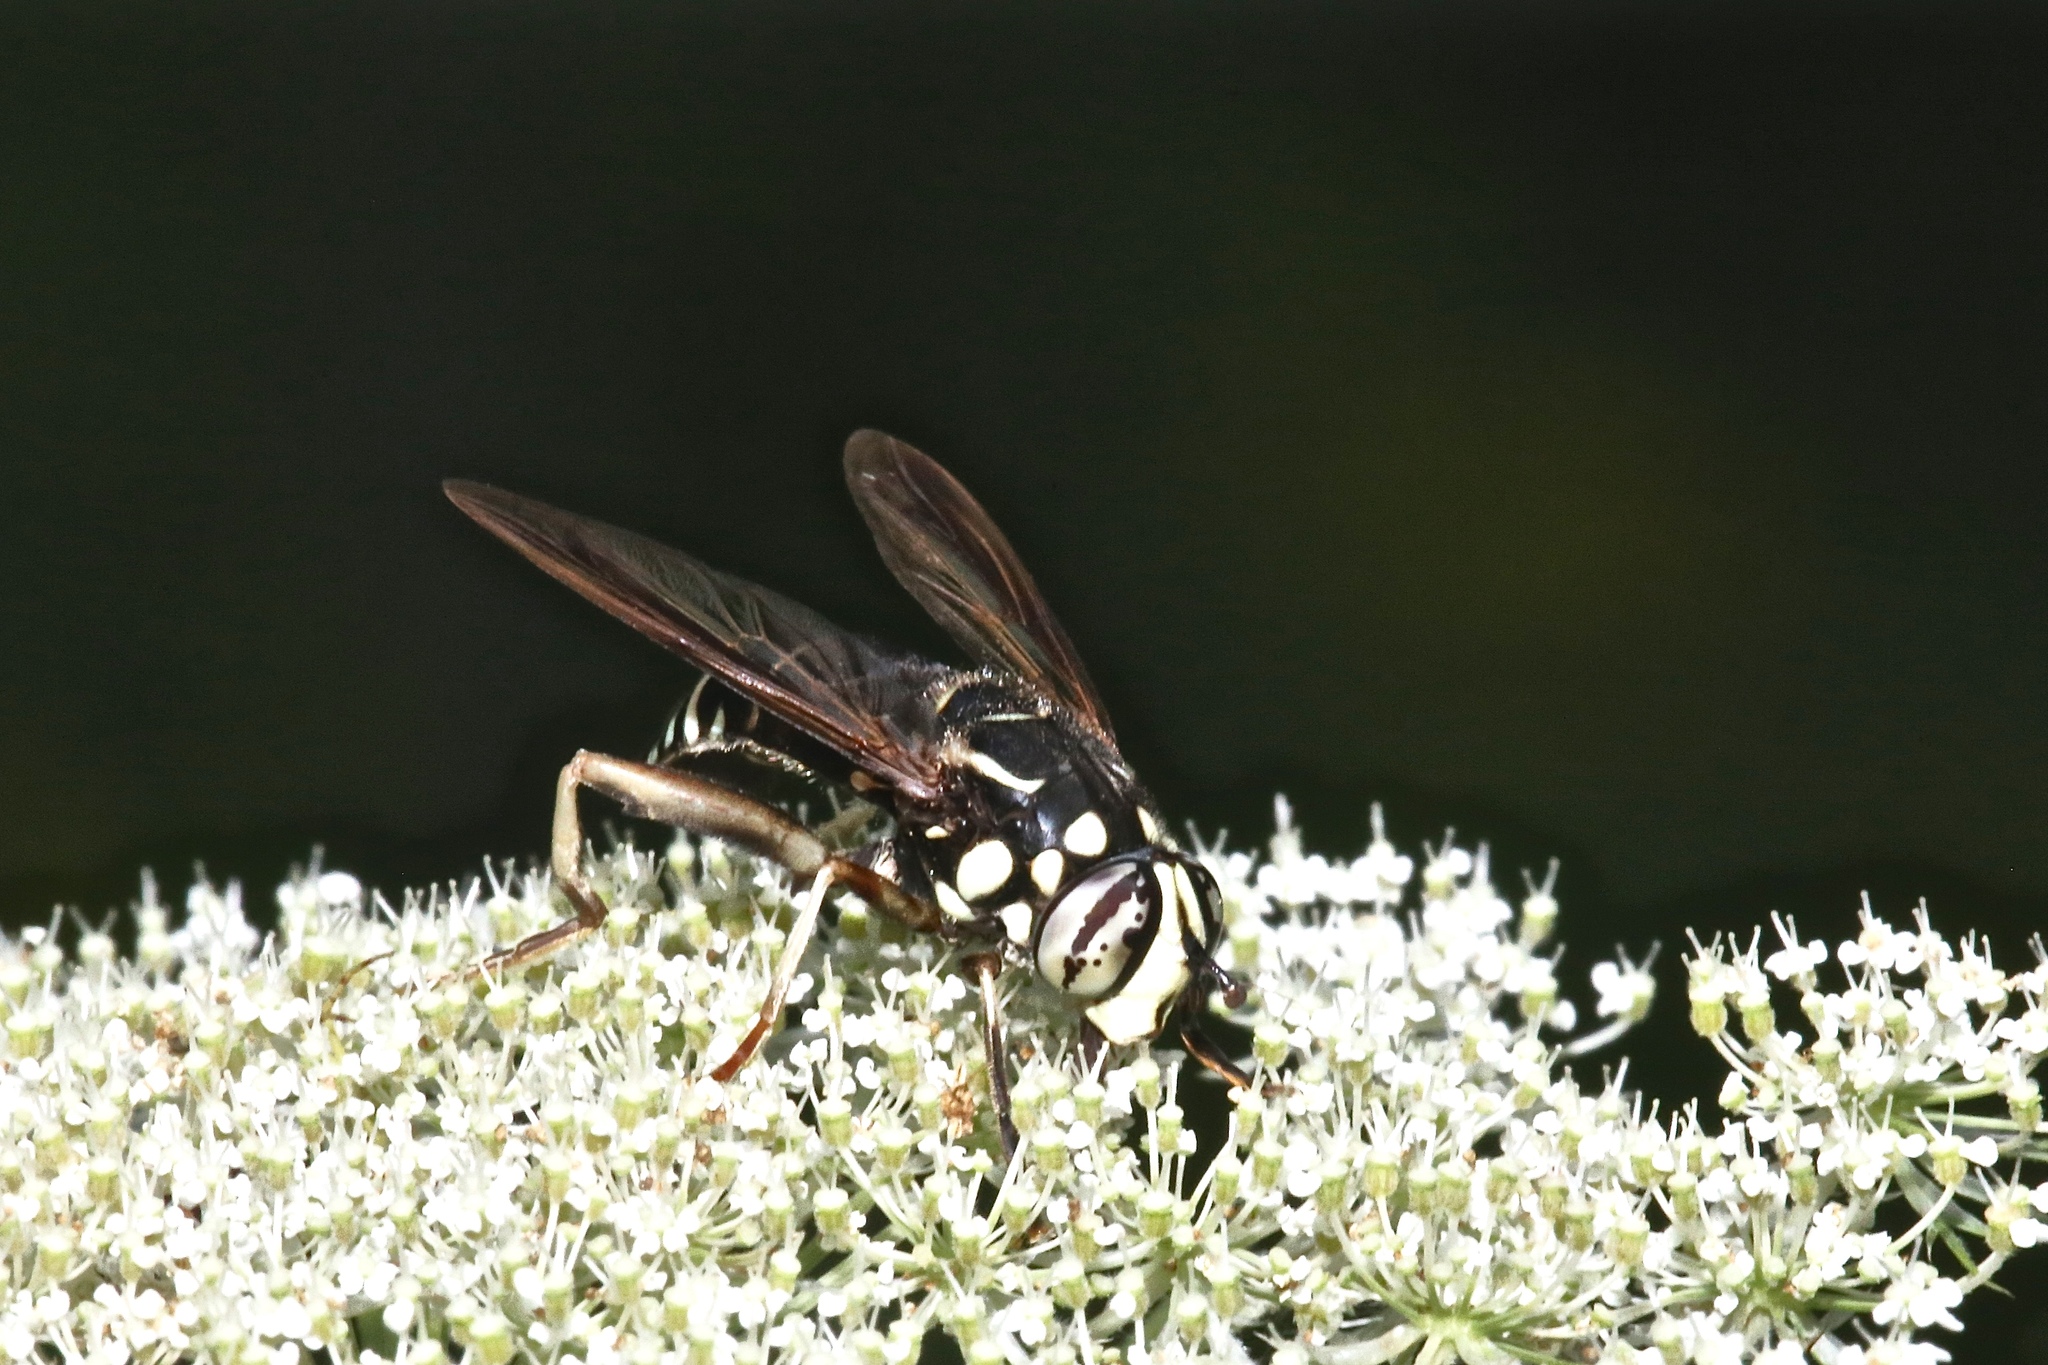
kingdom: Animalia
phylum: Arthropoda
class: Insecta
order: Diptera
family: Syrphidae
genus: Spilomyia
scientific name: Spilomyia fusca
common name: Bald-faced hornet fly
